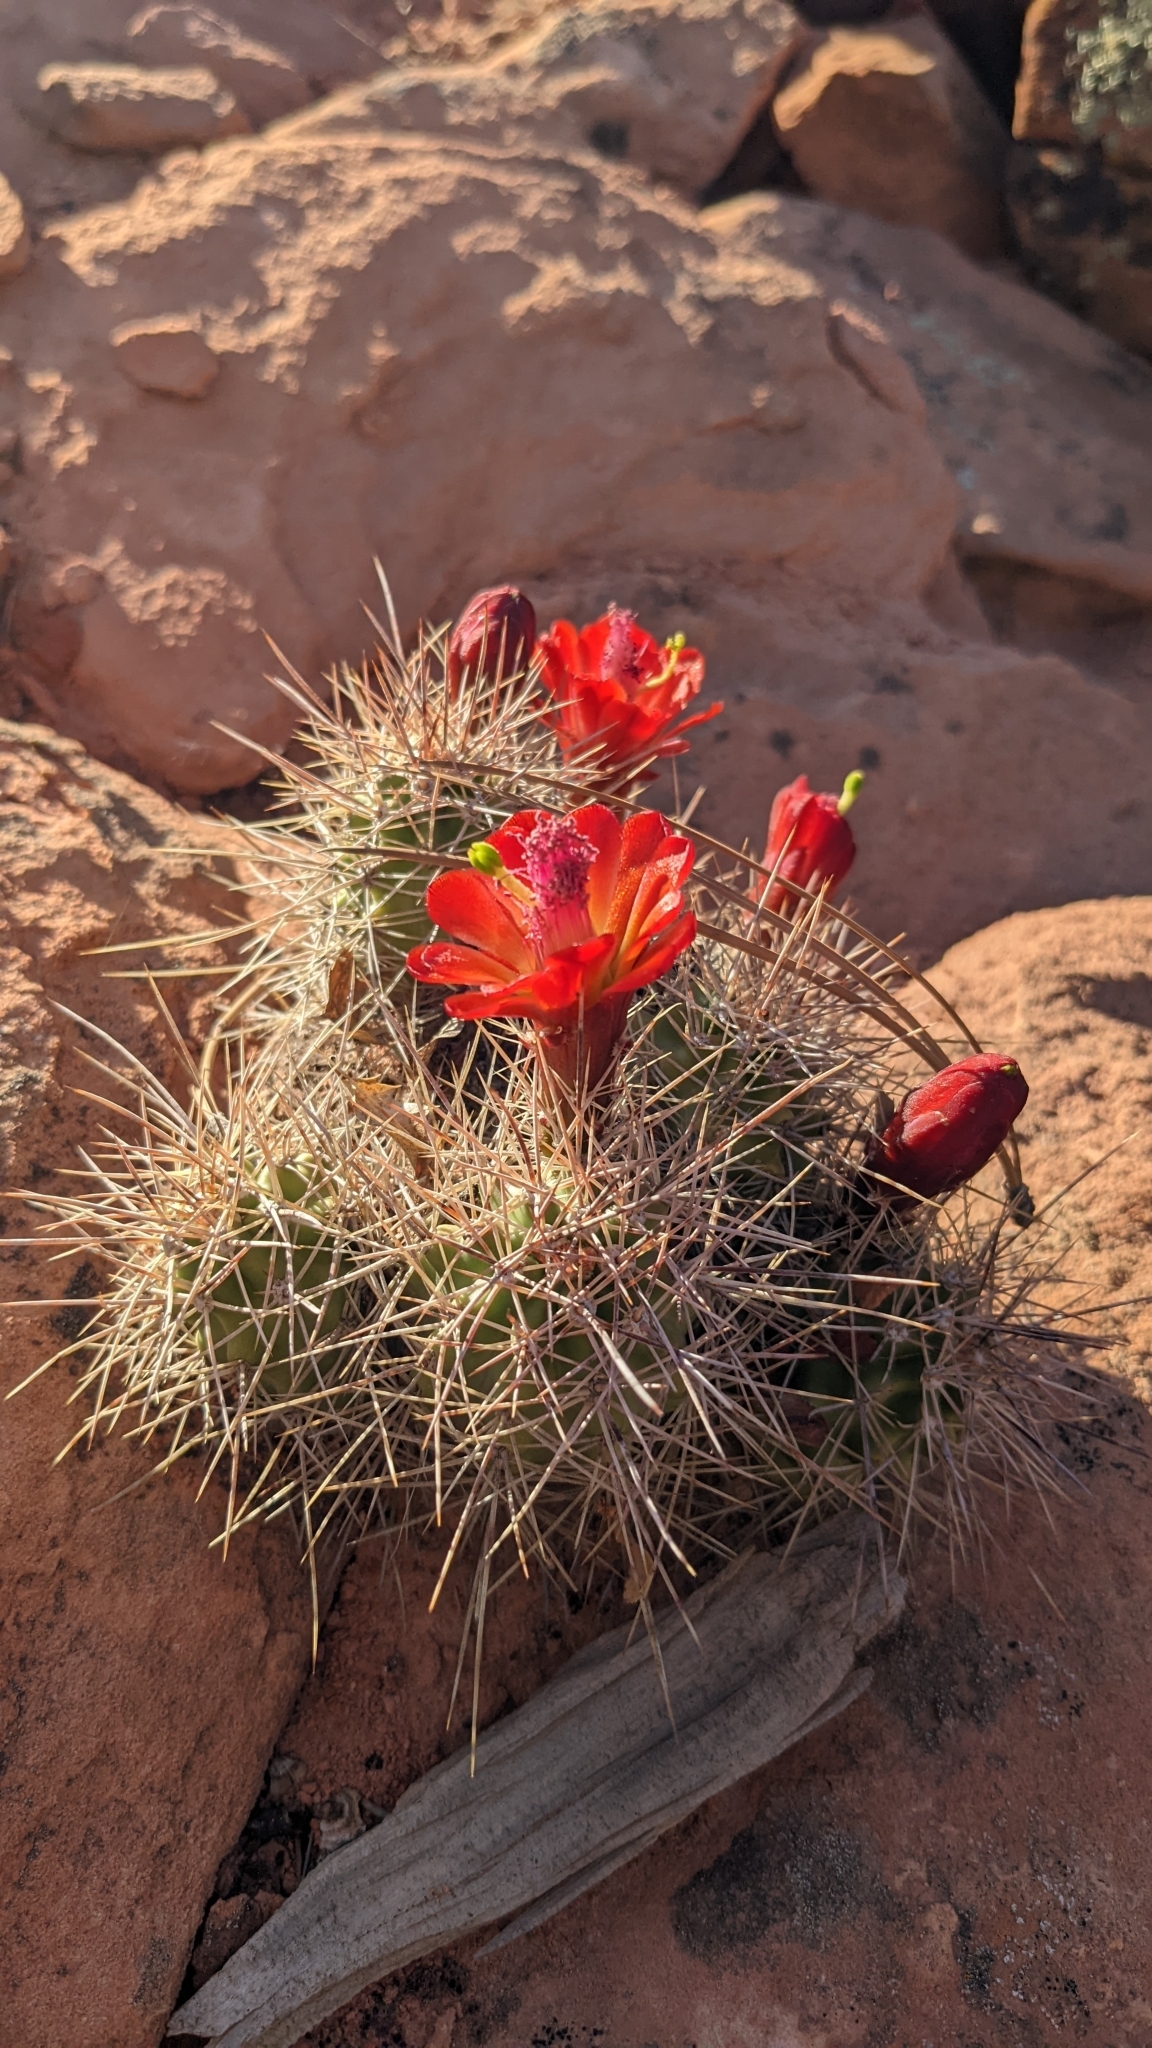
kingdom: Plantae
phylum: Tracheophyta
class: Magnoliopsida
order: Caryophyllales
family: Cactaceae
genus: Echinocereus
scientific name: Echinocereus triglochidiatus
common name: Claretcup hedgehog
